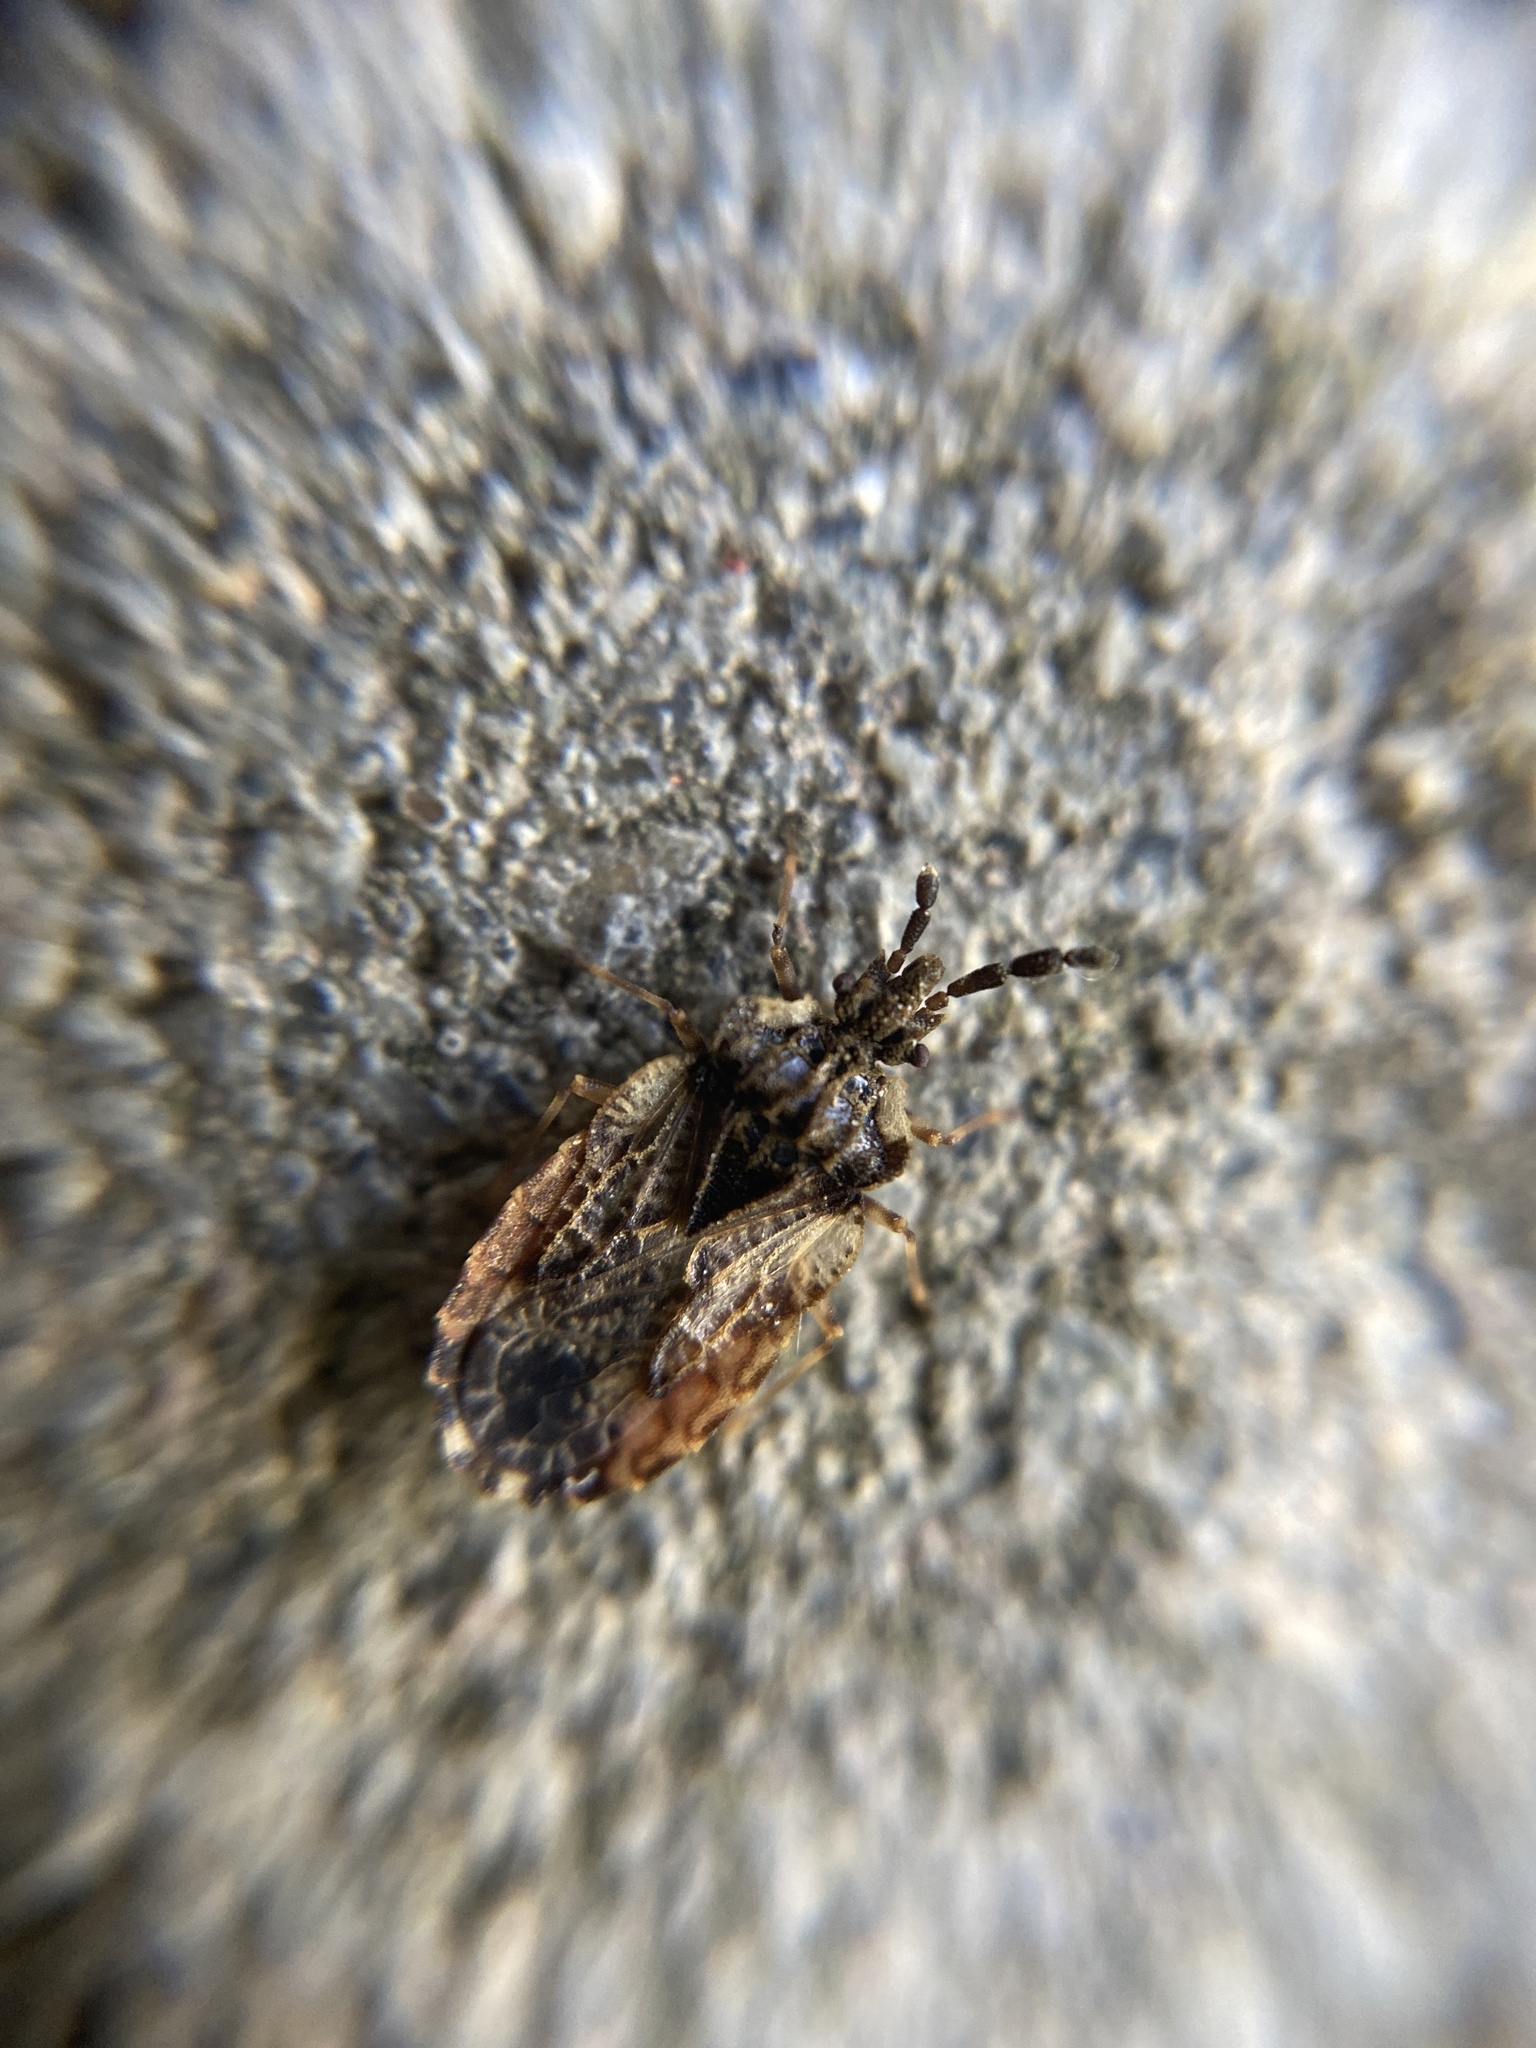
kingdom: Animalia
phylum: Arthropoda
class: Insecta
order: Hemiptera
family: Aradidae
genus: Aradus
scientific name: Aradus depressus
